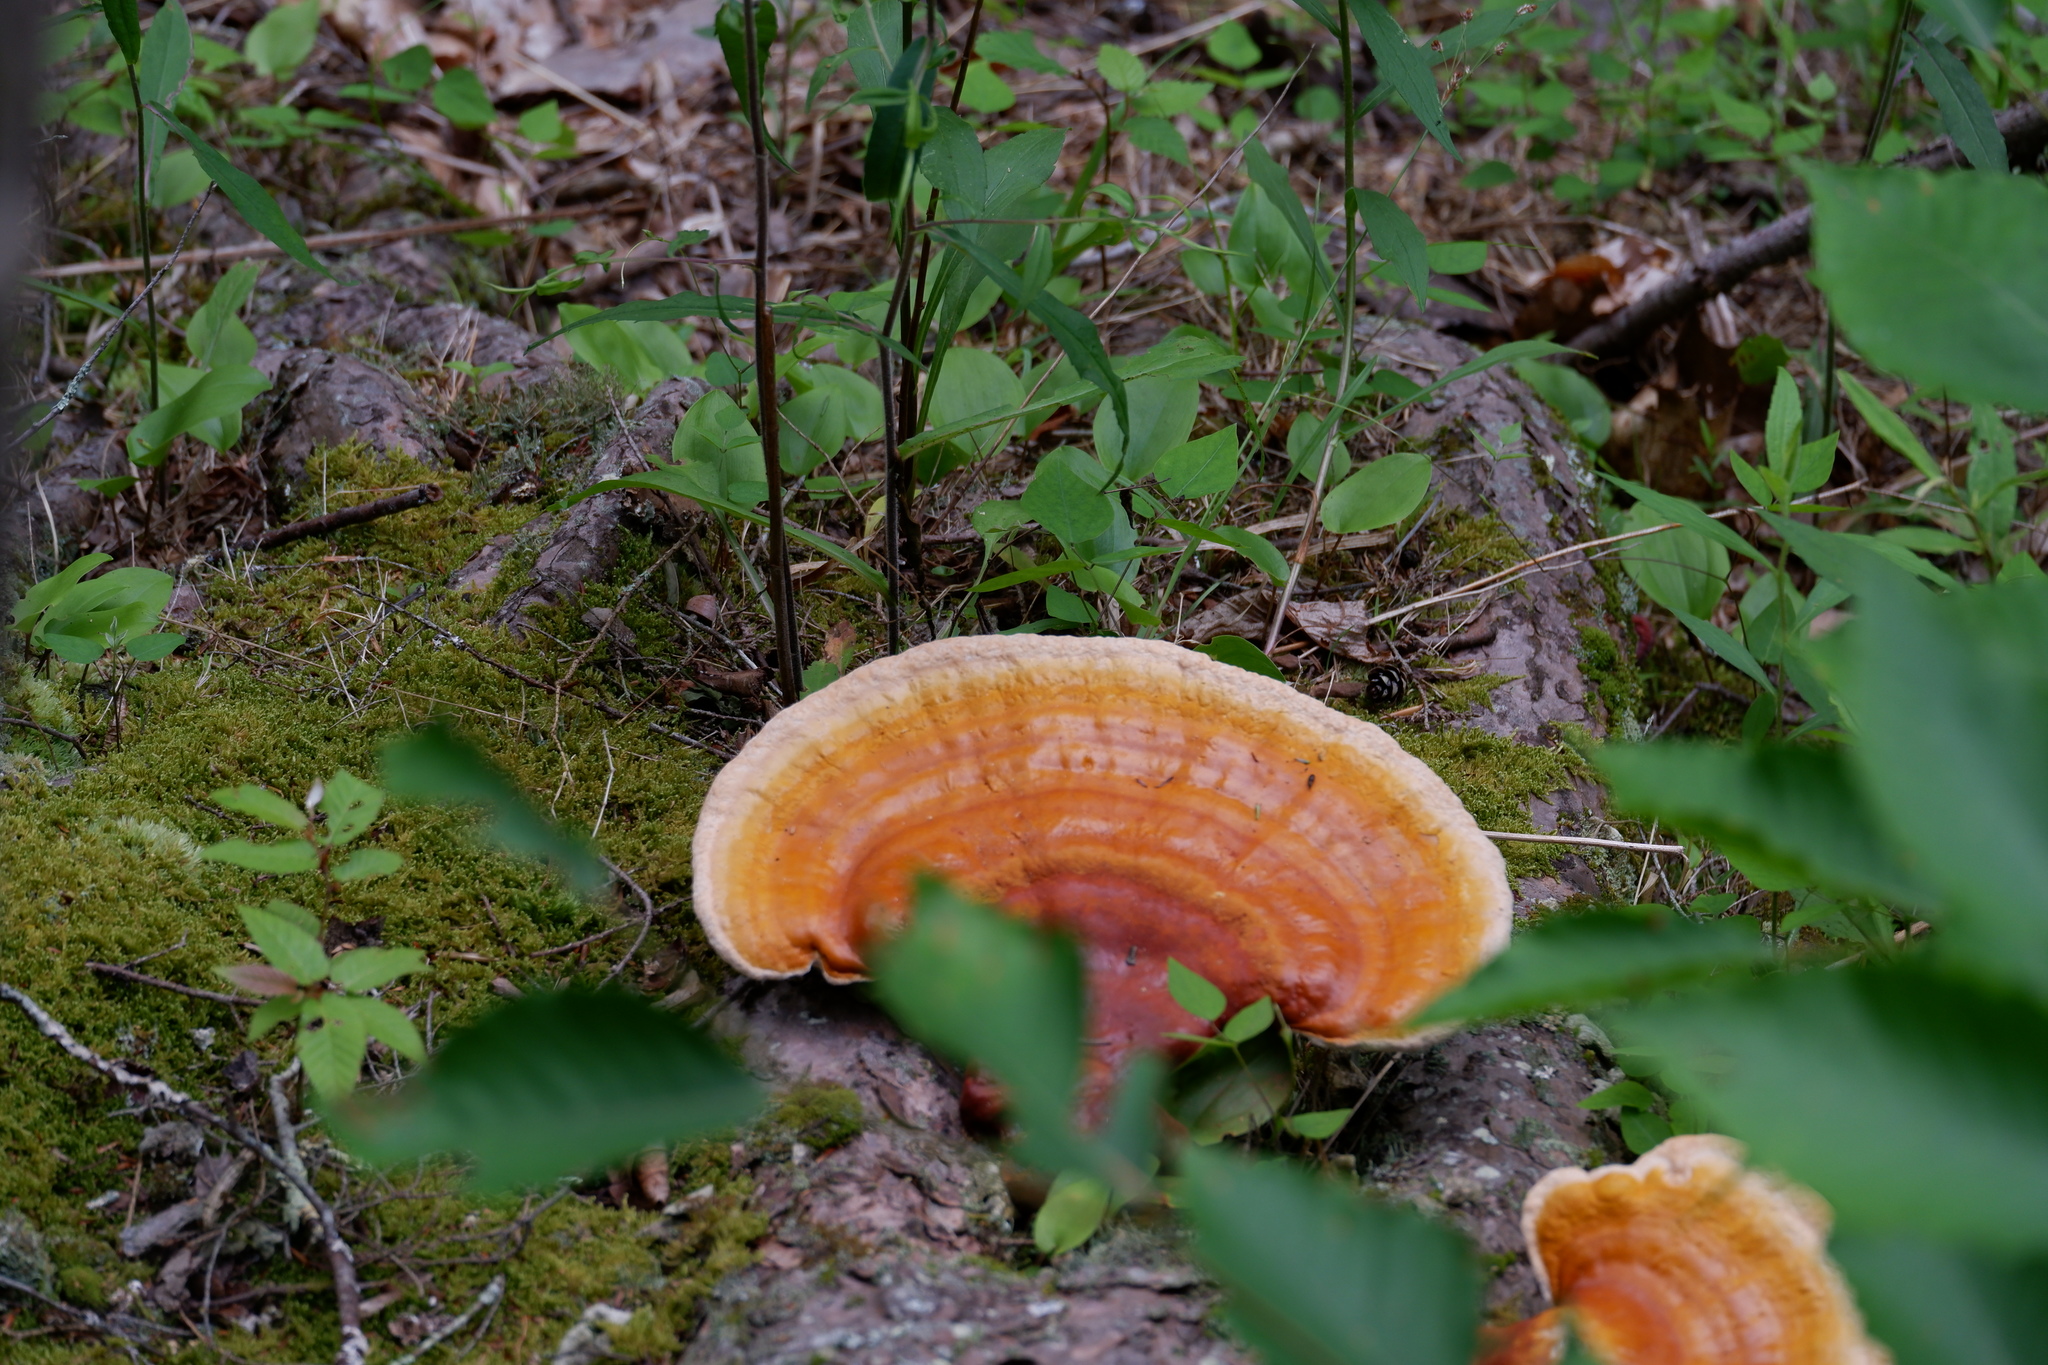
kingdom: Fungi
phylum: Basidiomycota
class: Agaricomycetes
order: Polyporales
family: Polyporaceae
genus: Ganoderma
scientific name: Ganoderma
